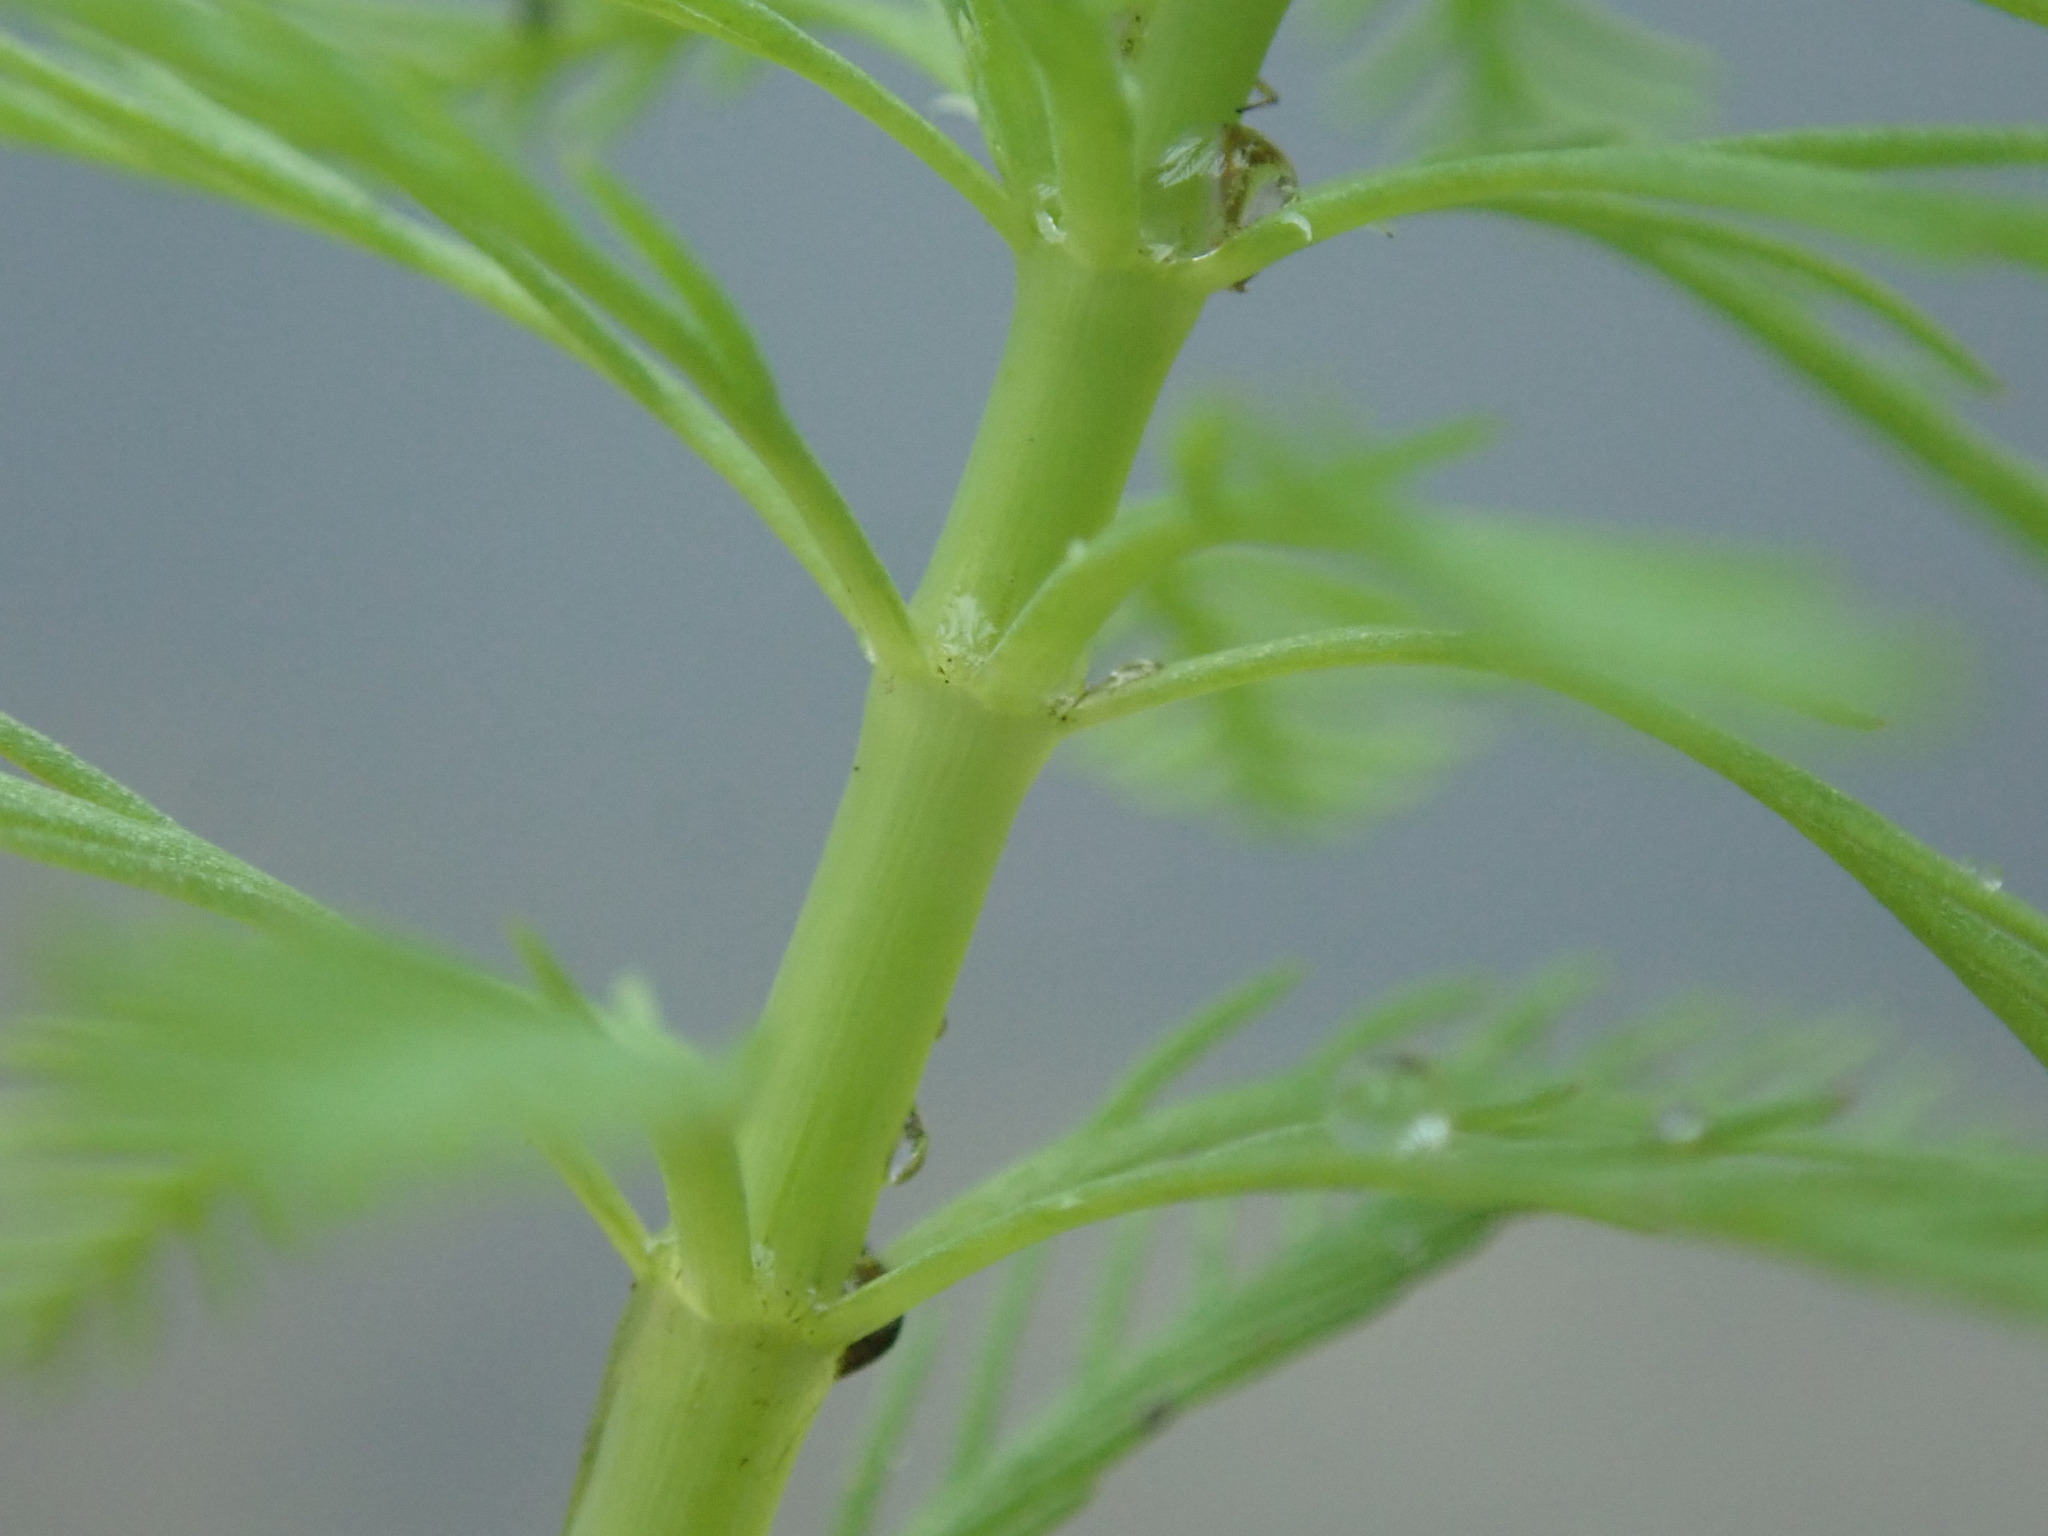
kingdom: Plantae
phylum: Tracheophyta
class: Magnoliopsida
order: Saxifragales
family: Haloragaceae
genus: Myriophyllum
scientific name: Myriophyllum aquaticum
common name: Parrot's feather
